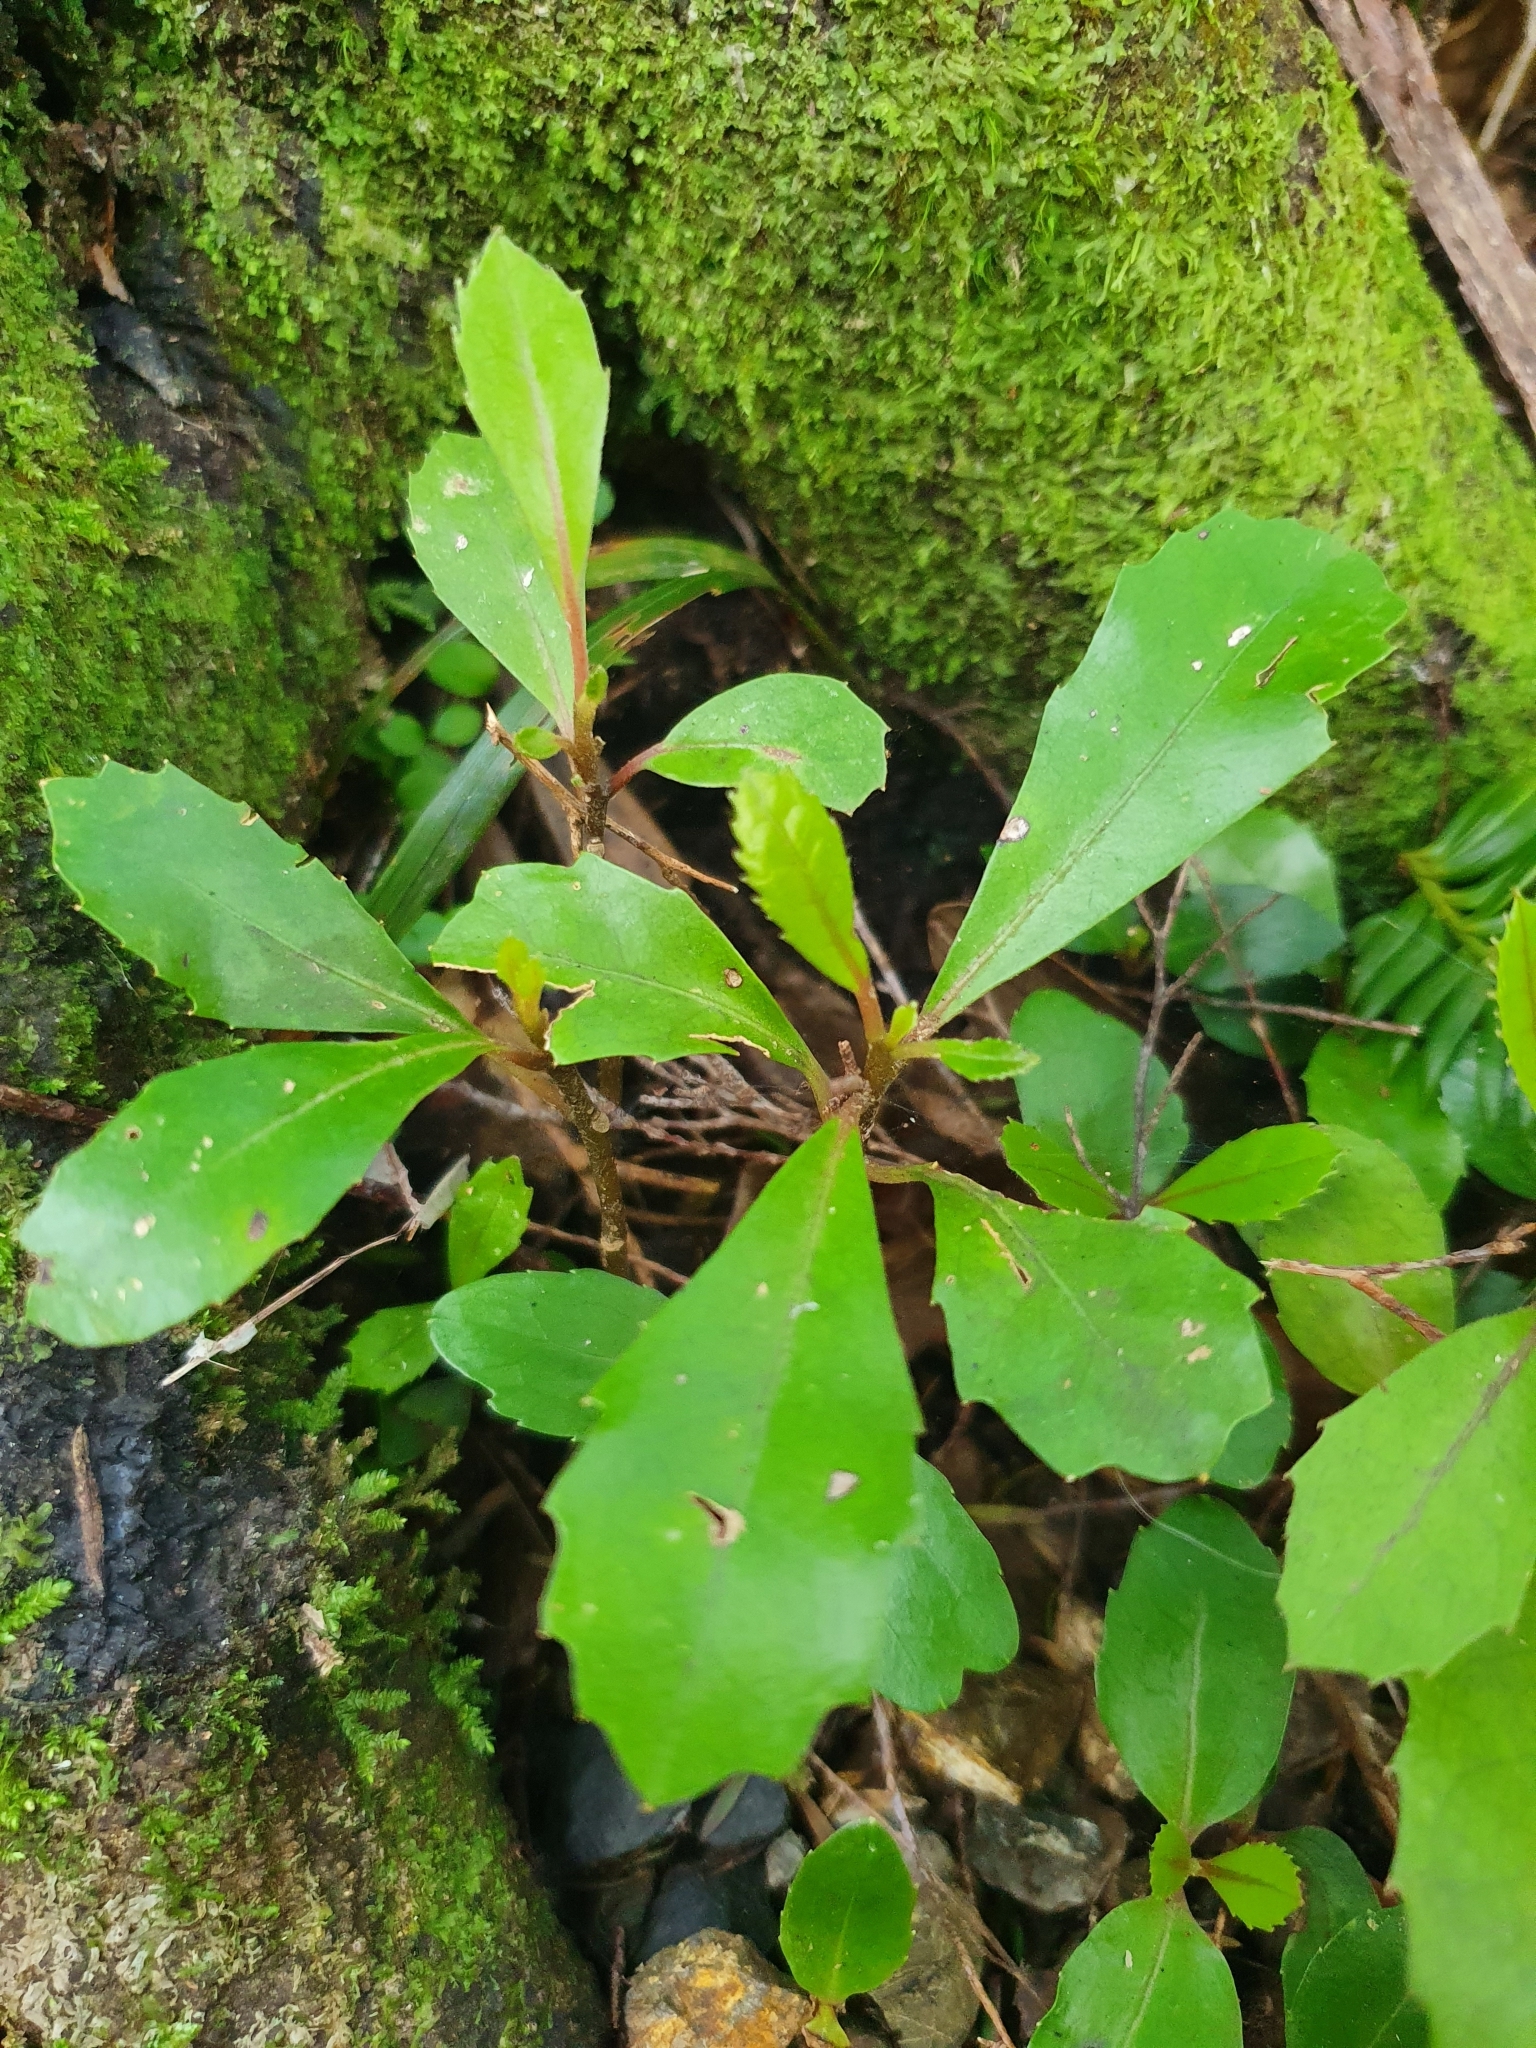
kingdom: Plantae
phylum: Tracheophyta
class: Magnoliopsida
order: Laurales
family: Monimiaceae
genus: Hedycarya
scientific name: Hedycarya arborea
